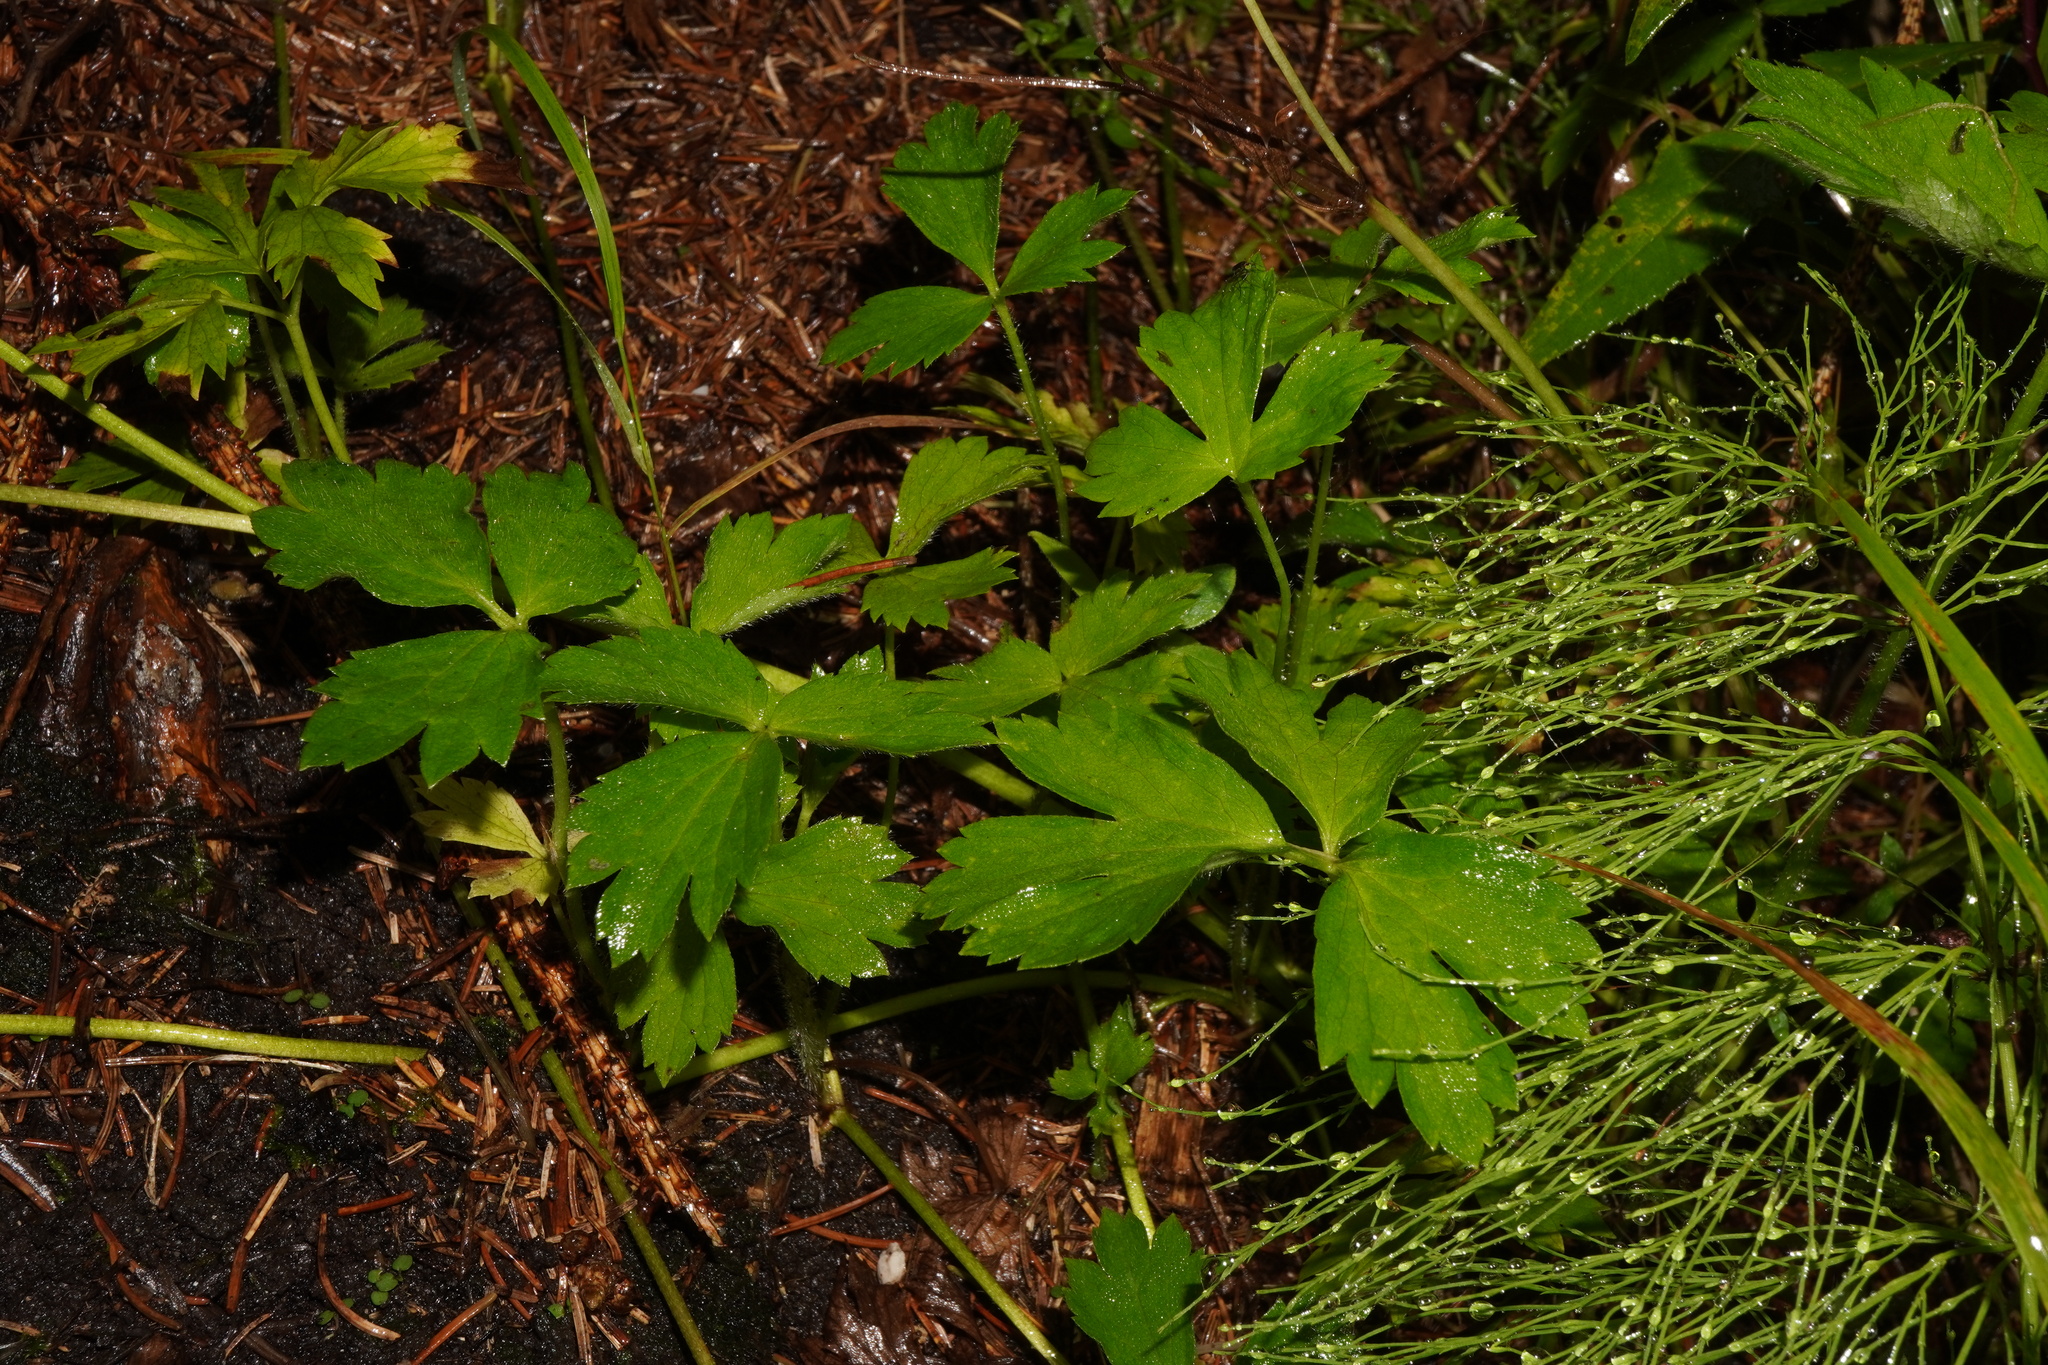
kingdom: Plantae
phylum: Tracheophyta
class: Magnoliopsida
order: Ranunculales
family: Ranunculaceae
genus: Ranunculus
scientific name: Ranunculus repens
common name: Creeping buttercup
